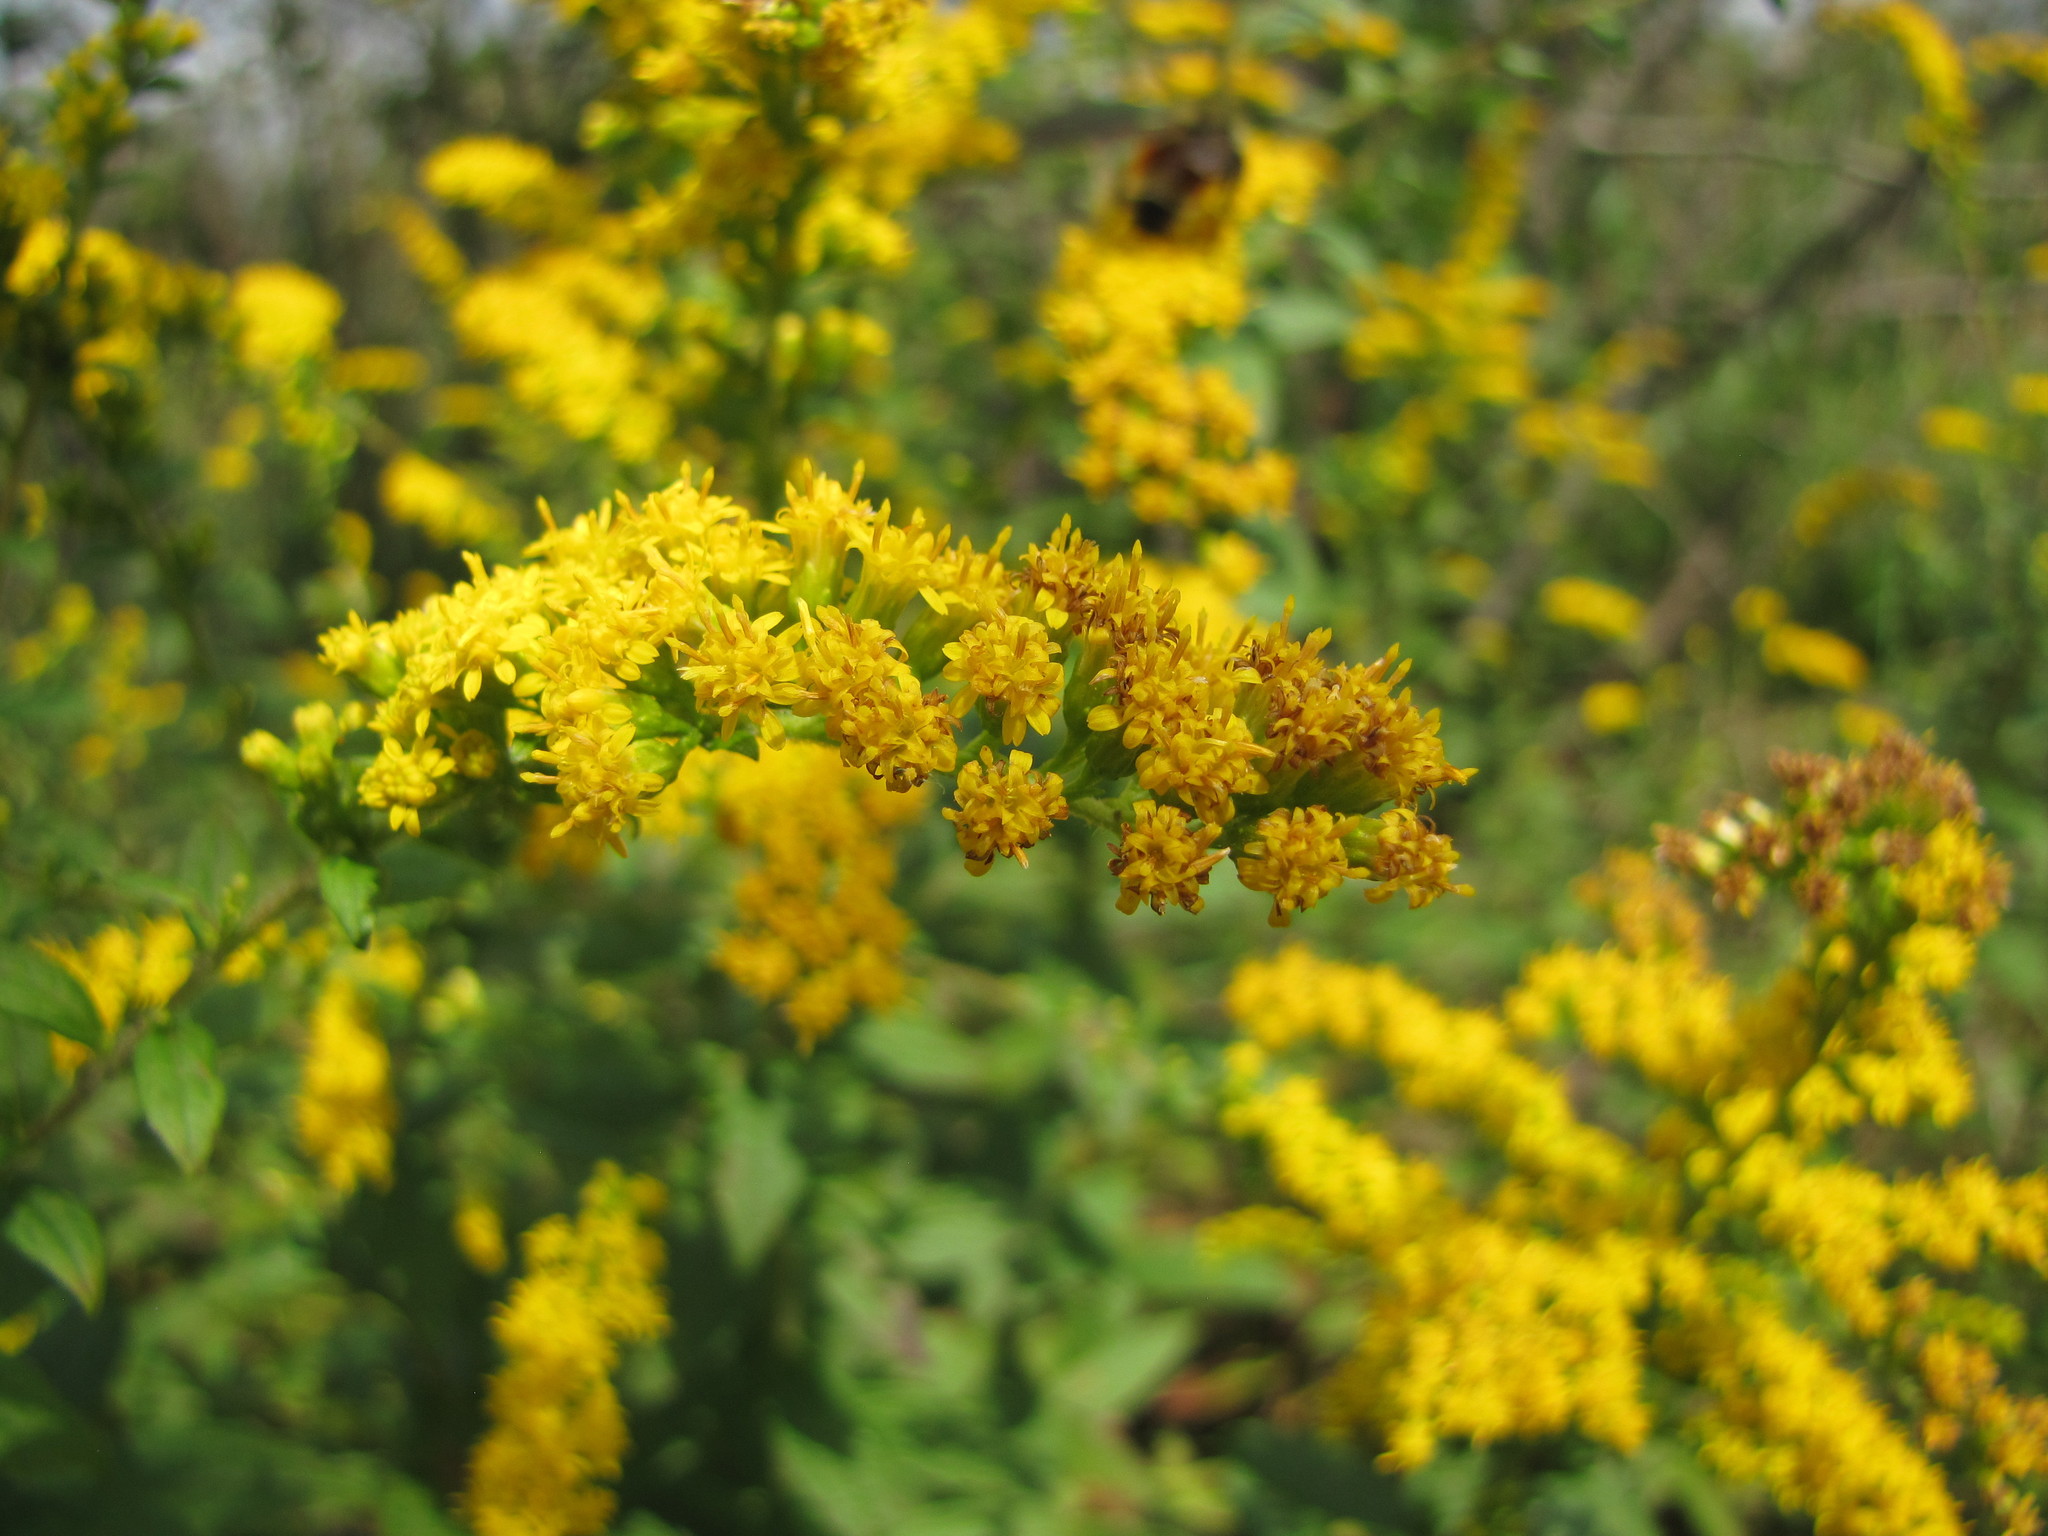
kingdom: Plantae
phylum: Tracheophyta
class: Magnoliopsida
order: Asterales
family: Asteraceae
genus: Solidago
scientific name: Solidago rugosa
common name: Rough-stemmed goldenrod
